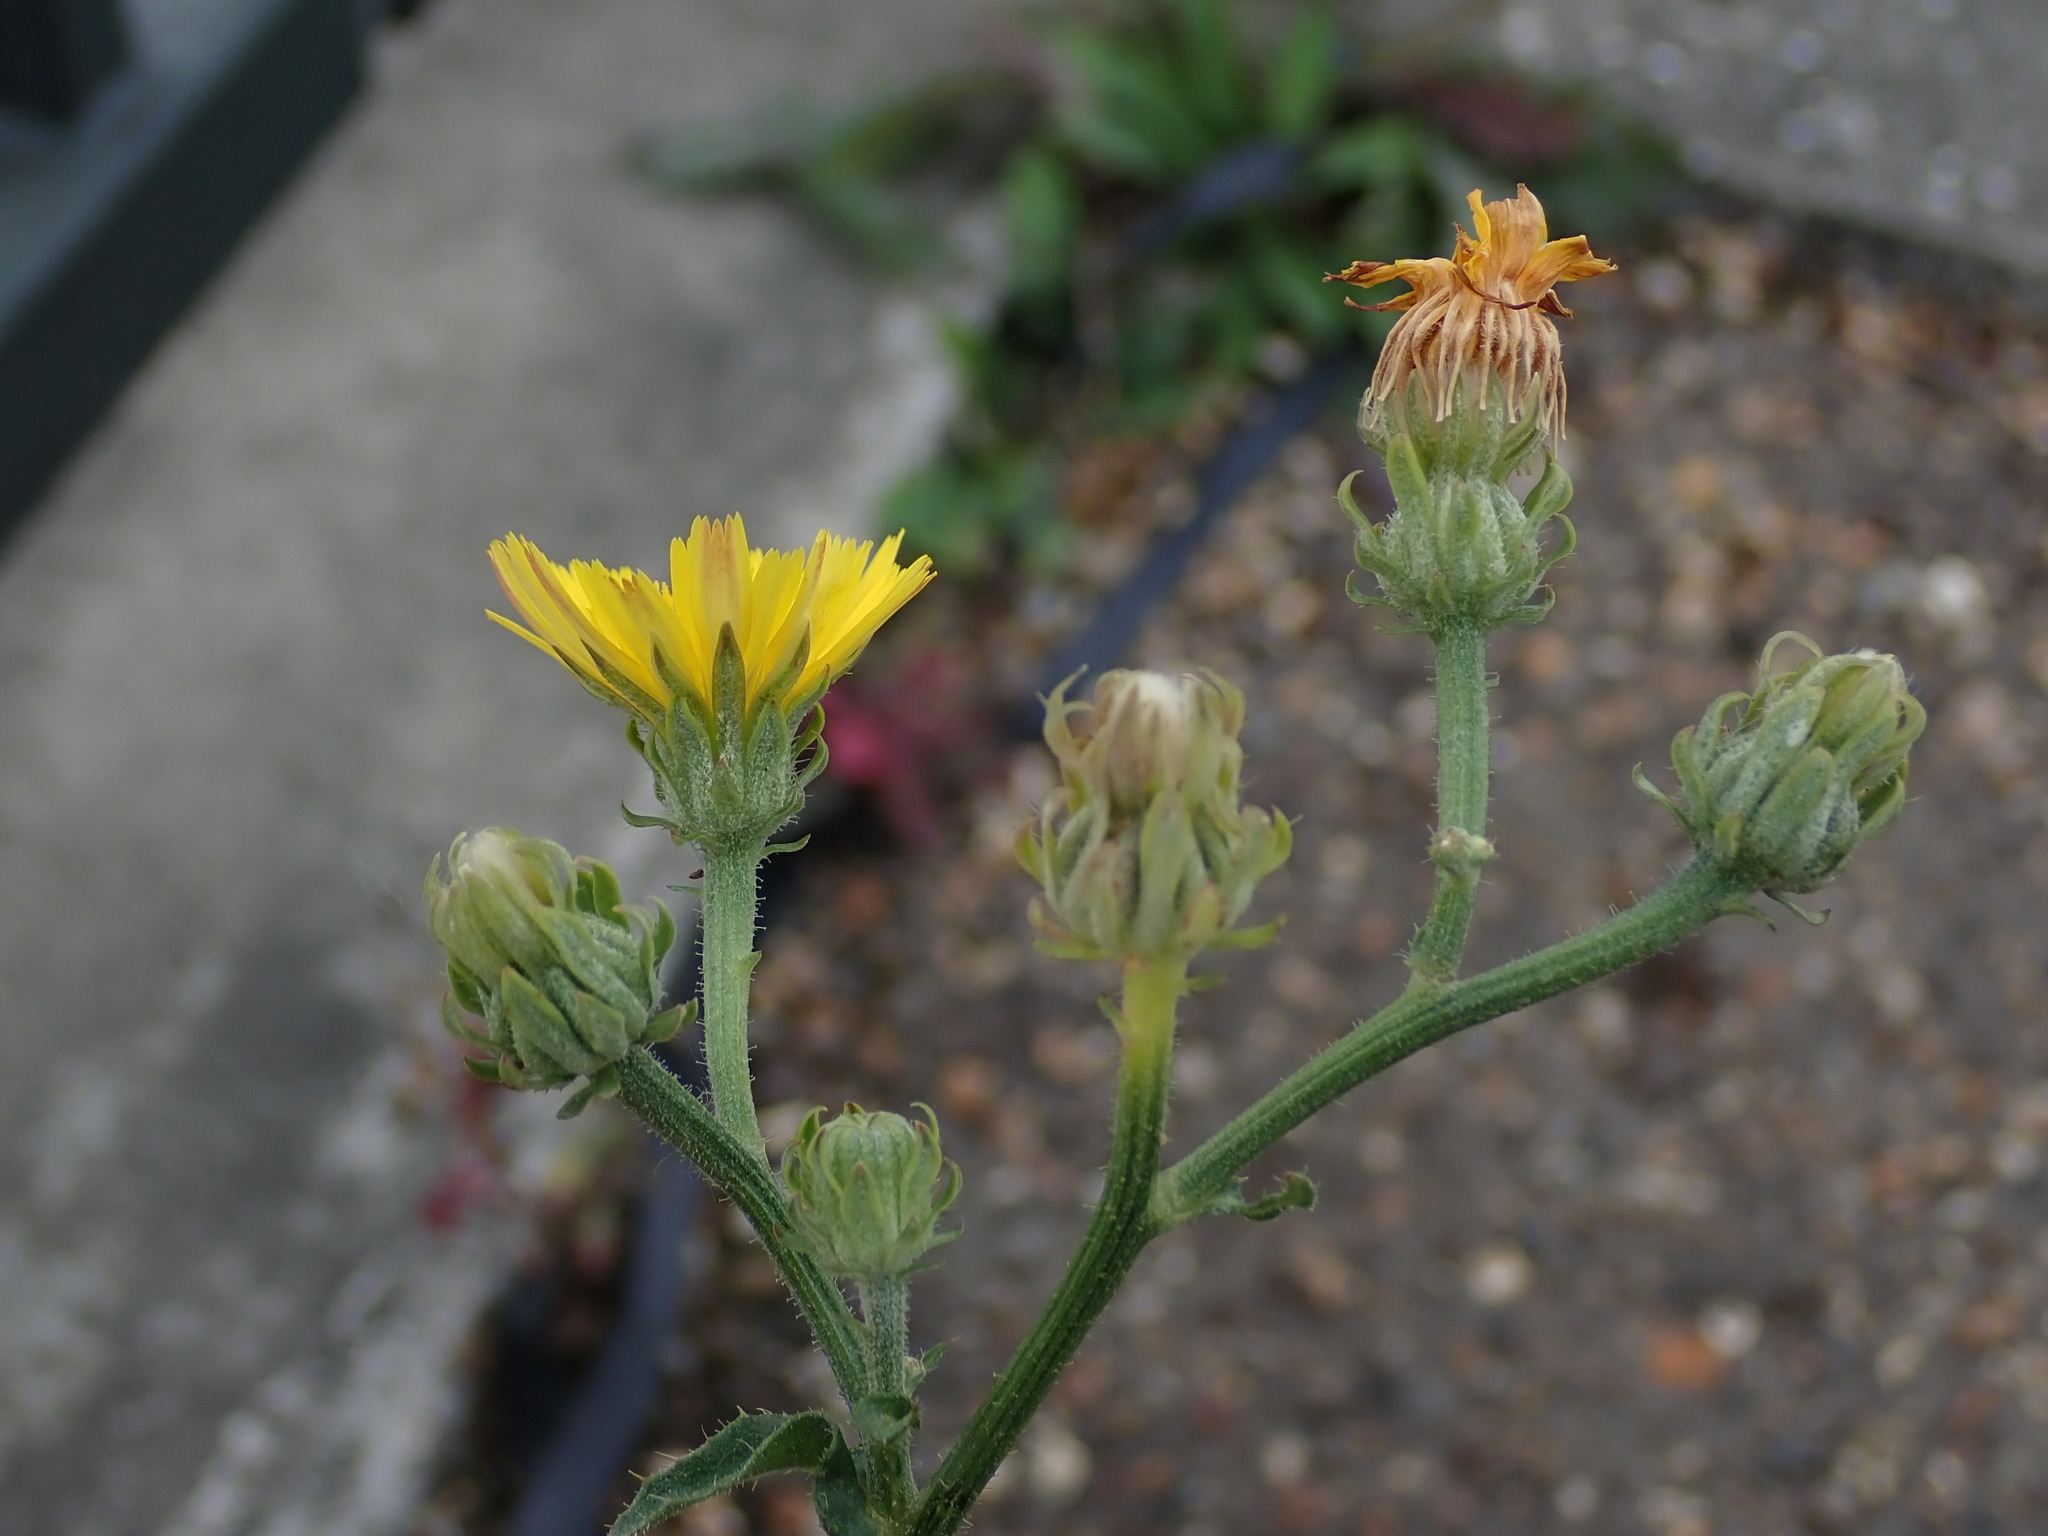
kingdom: Plantae
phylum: Tracheophyta
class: Magnoliopsida
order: Asterales
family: Asteraceae
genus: Picris
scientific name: Picris hieracioides
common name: Hawkweed oxtongue
